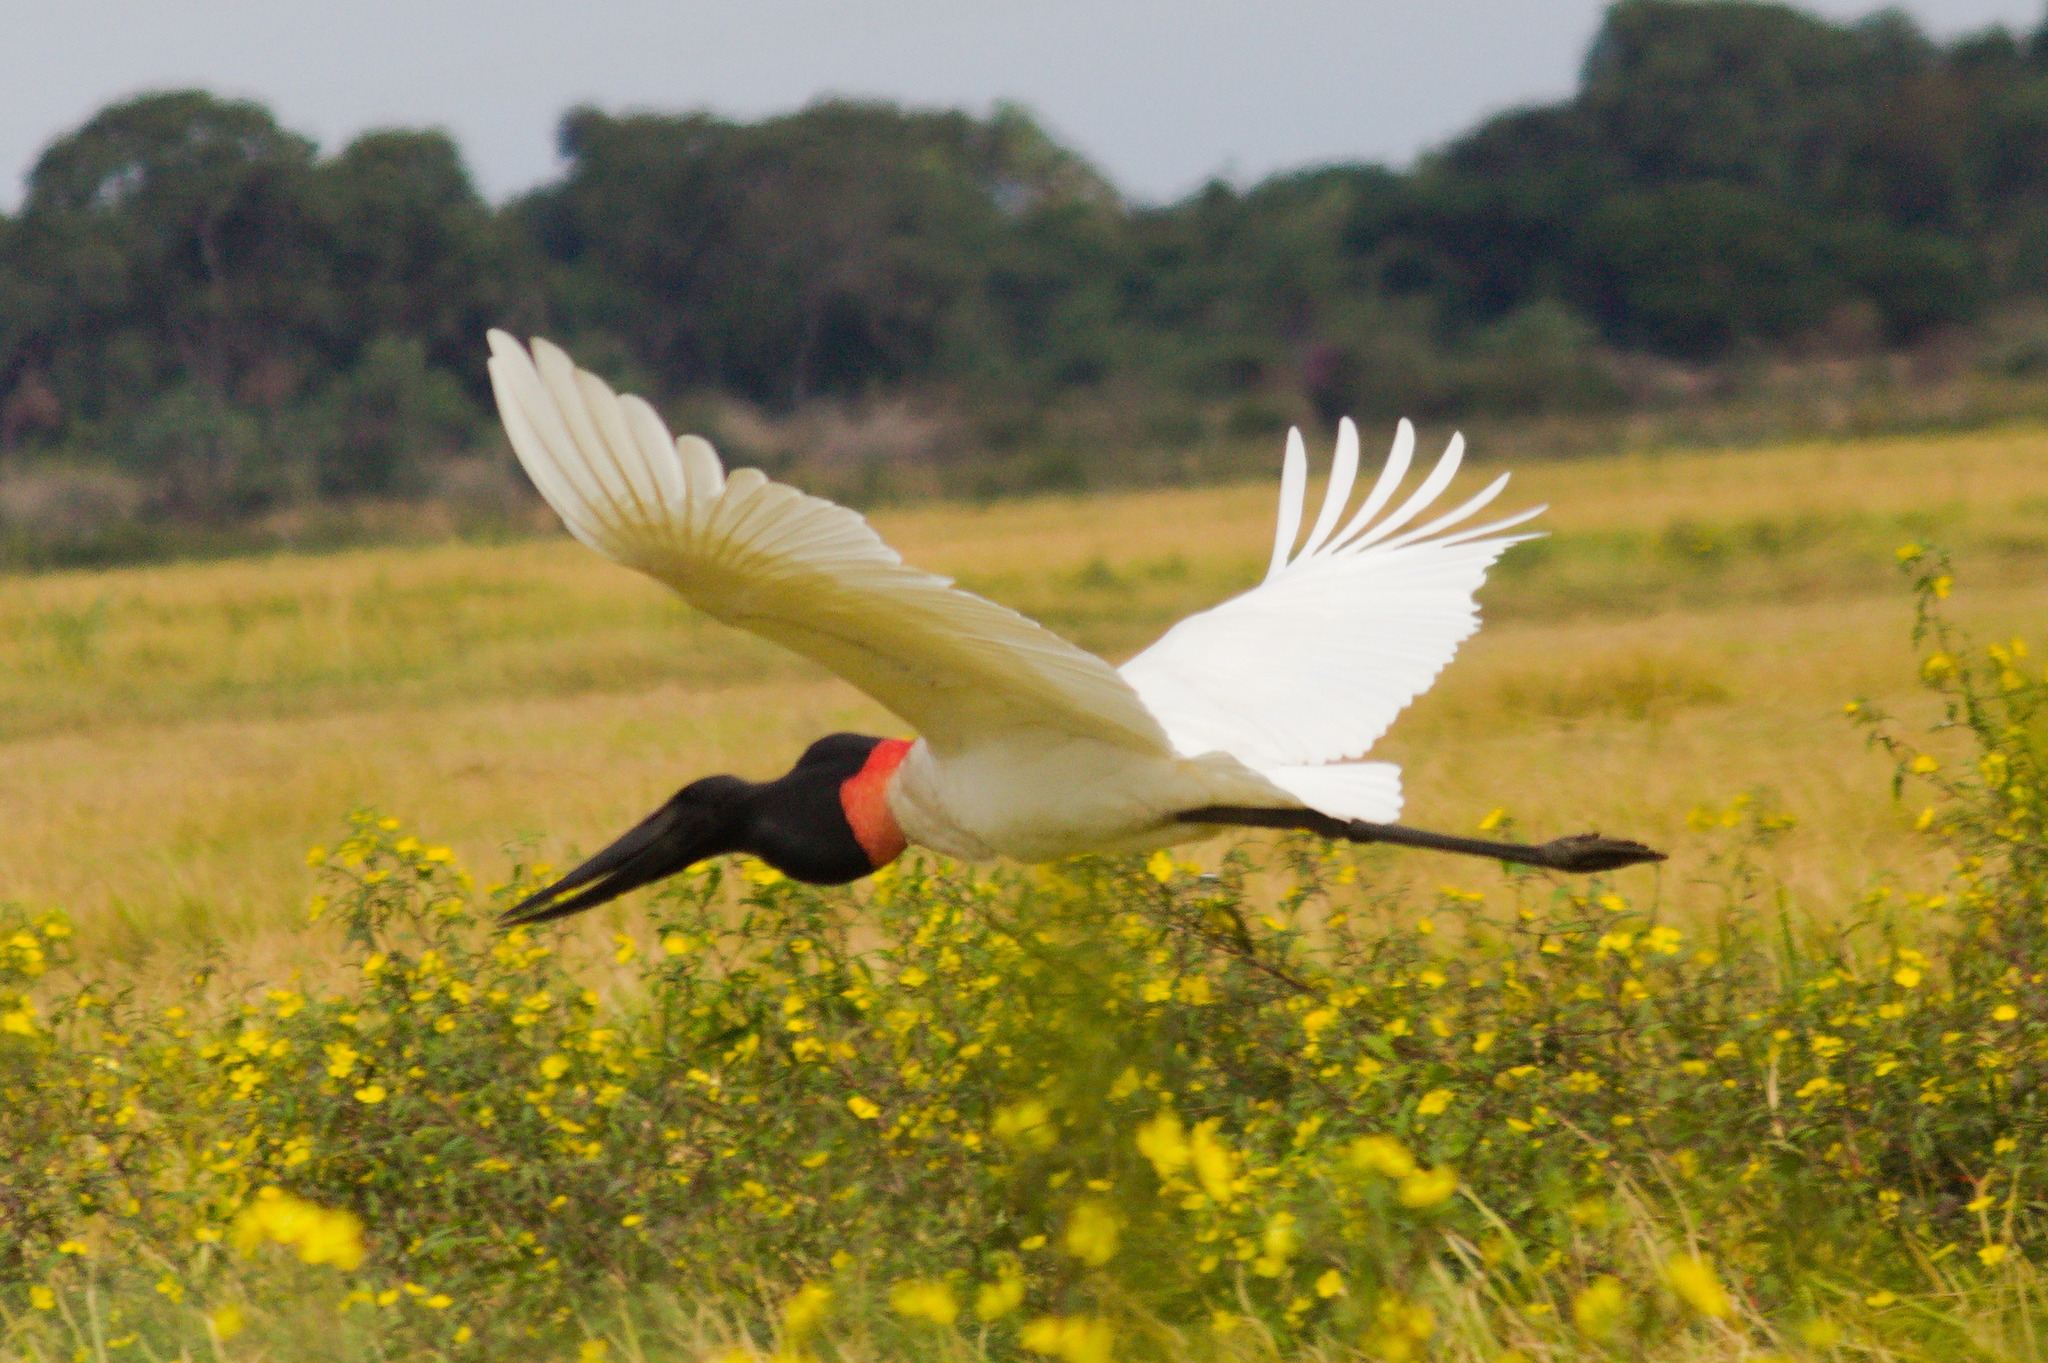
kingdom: Animalia
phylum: Chordata
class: Aves
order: Ciconiiformes
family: Ciconiidae
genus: Jabiru
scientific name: Jabiru mycteria
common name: Jabiru
